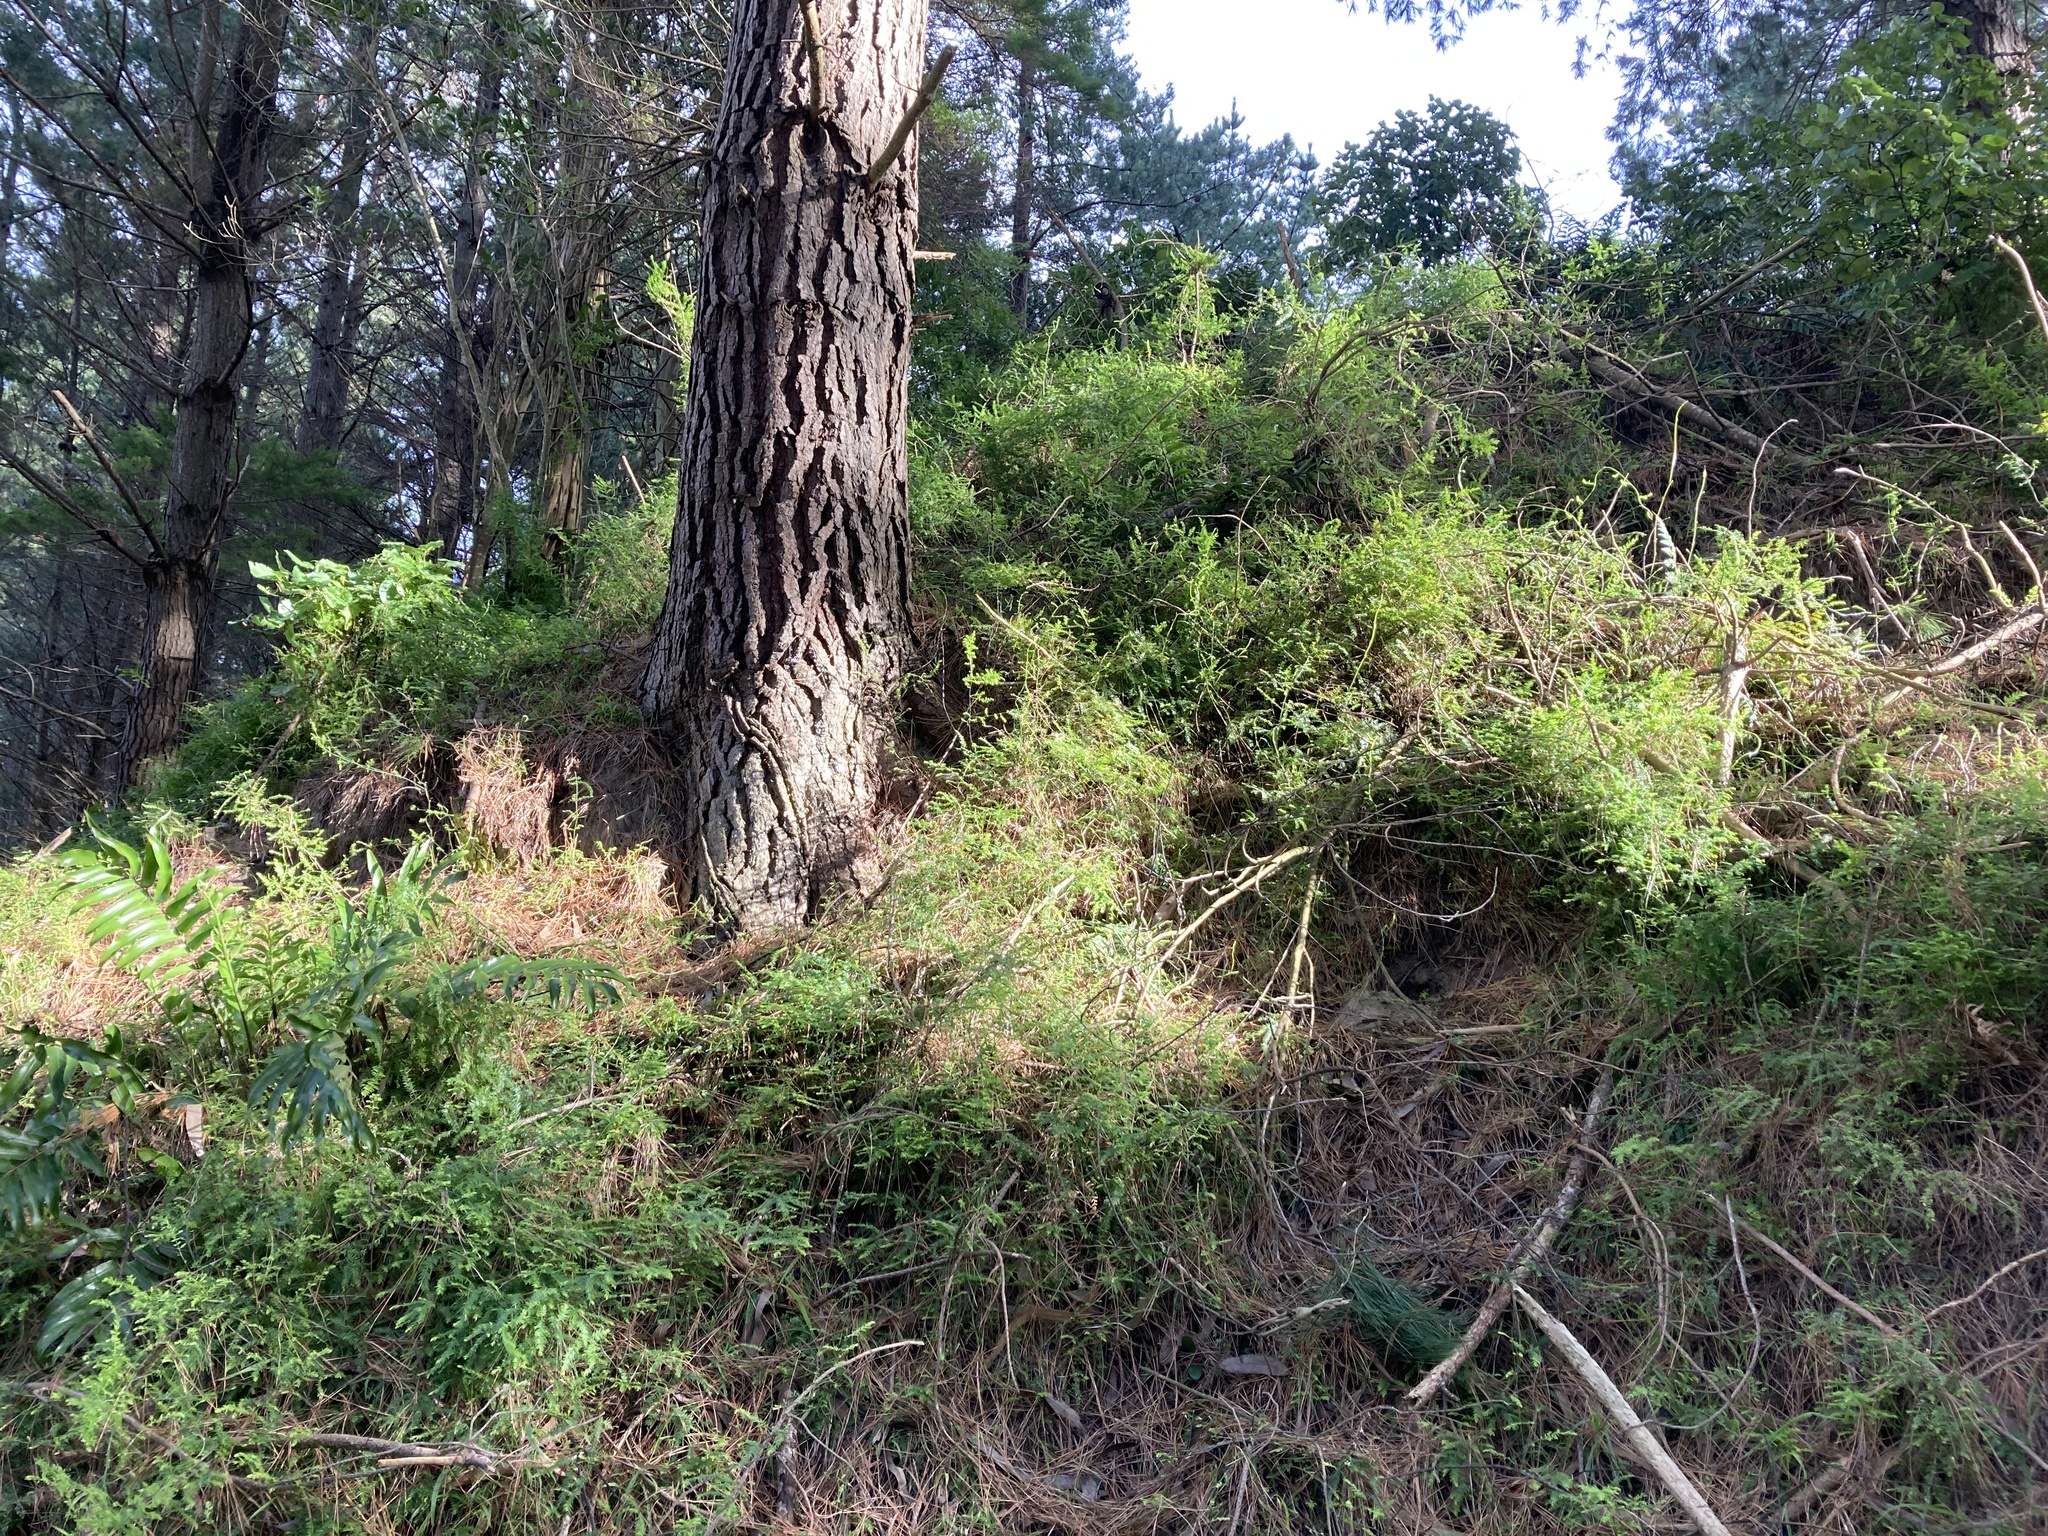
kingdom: Plantae
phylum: Tracheophyta
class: Liliopsida
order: Asparagales
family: Asparagaceae
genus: Asparagus
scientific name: Asparagus scandens
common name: Asparagus-fern
